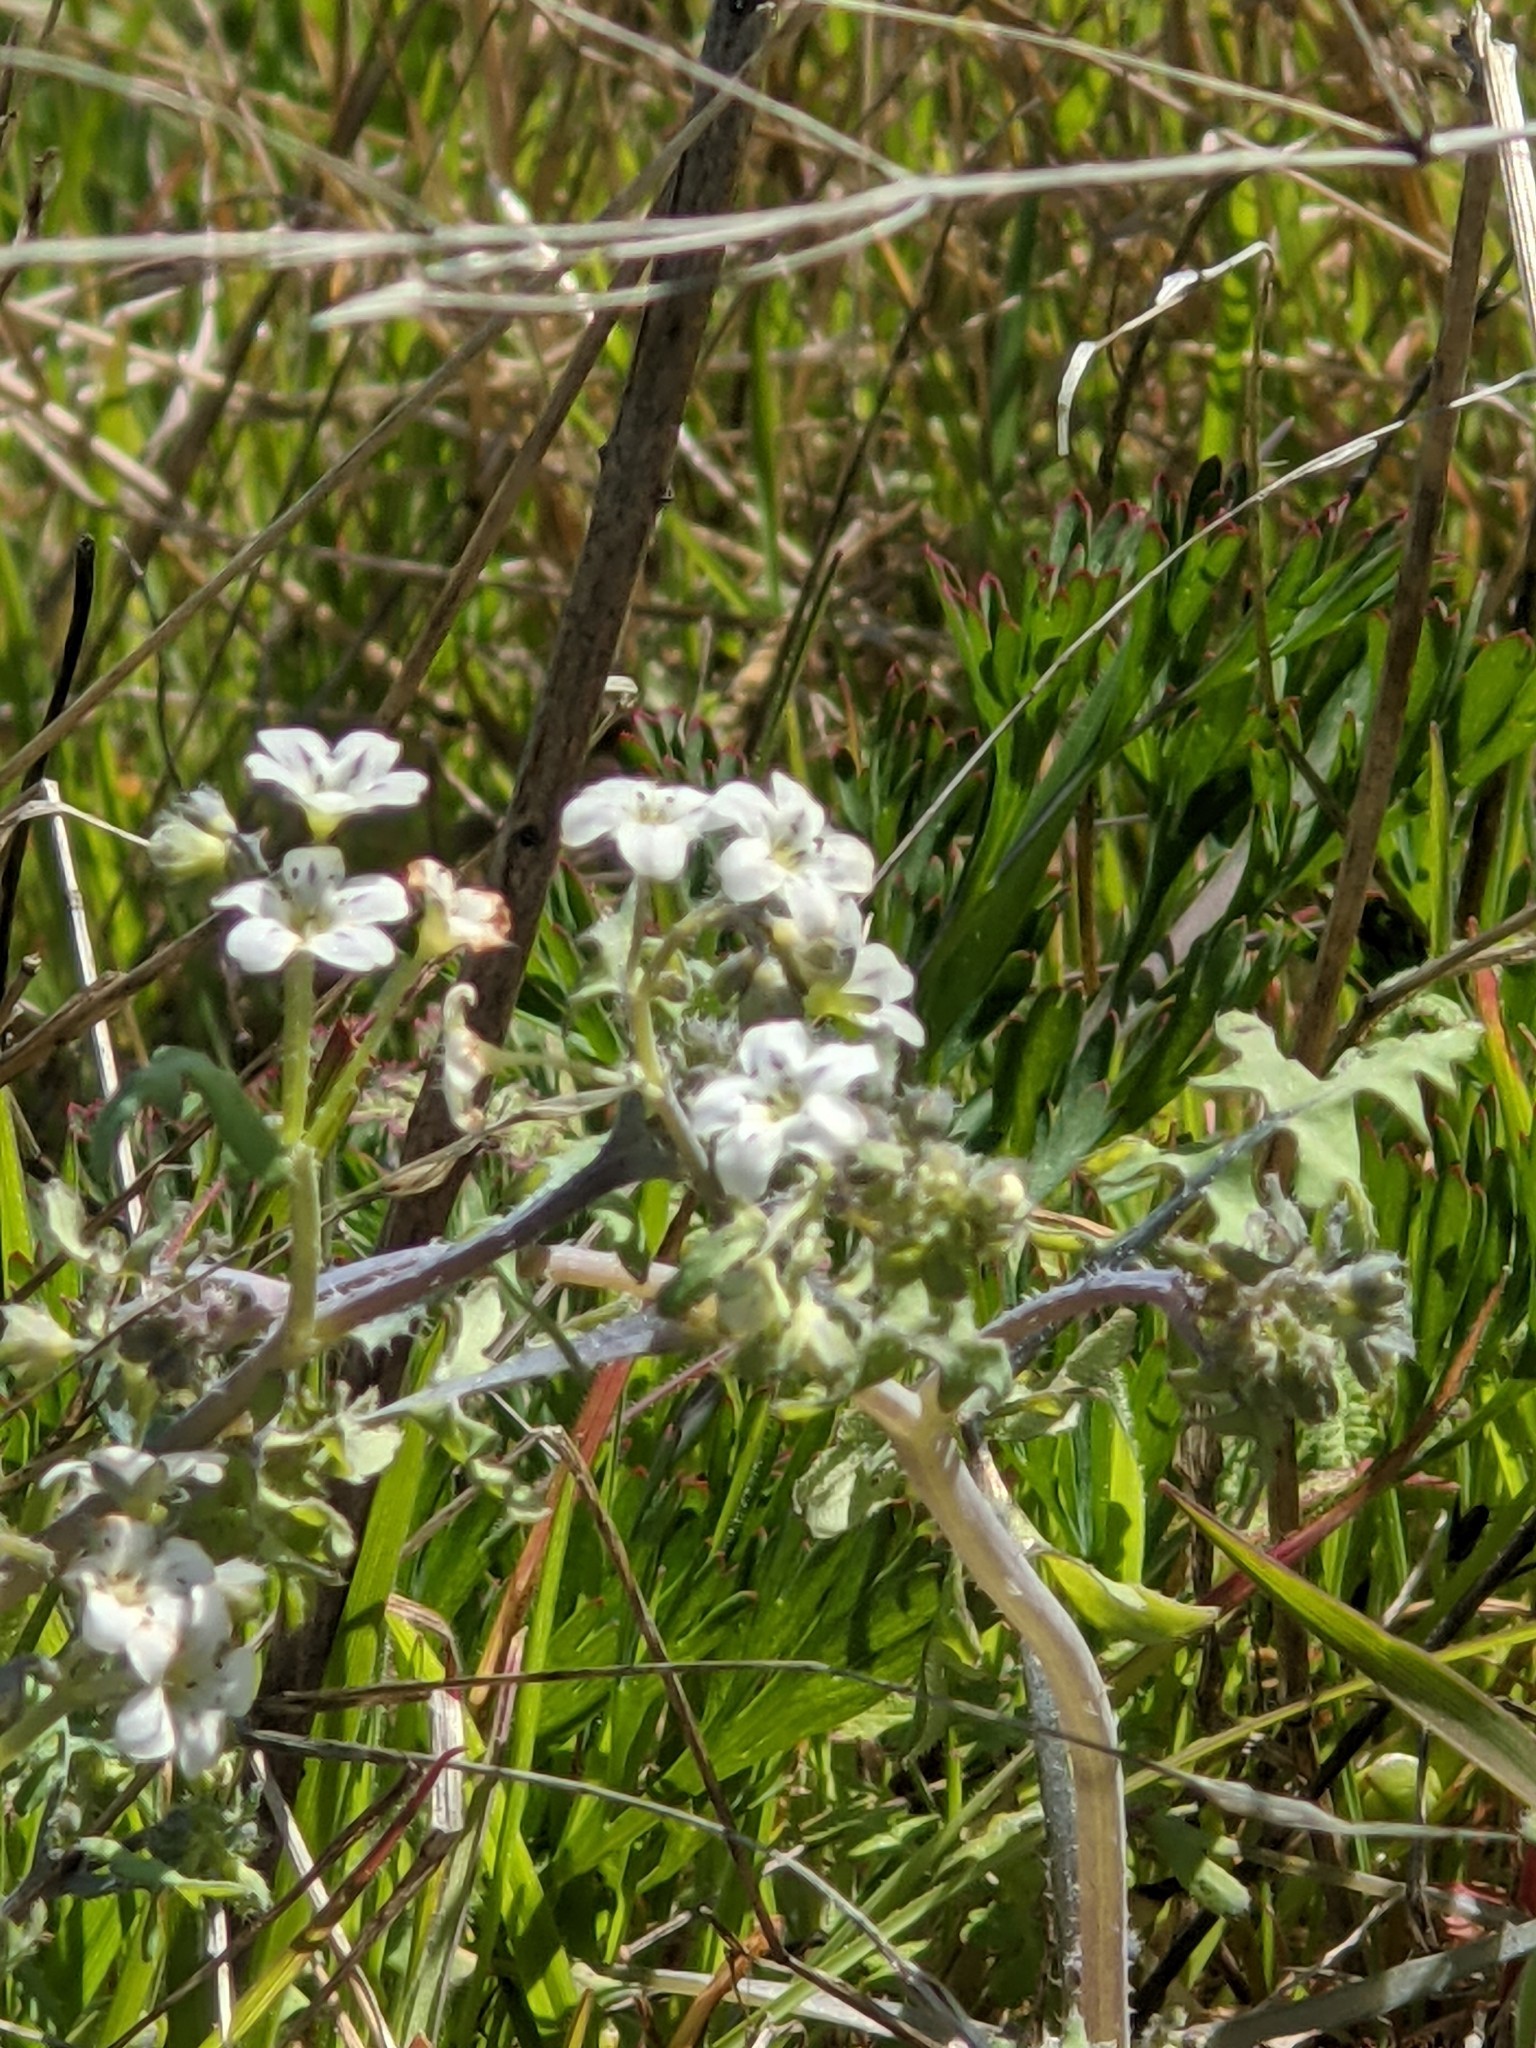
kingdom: Plantae
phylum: Tracheophyta
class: Magnoliopsida
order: Boraginales
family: Hydrophyllaceae
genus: Pholistoma
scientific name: Pholistoma membranaceum
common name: White fiesta-flower
